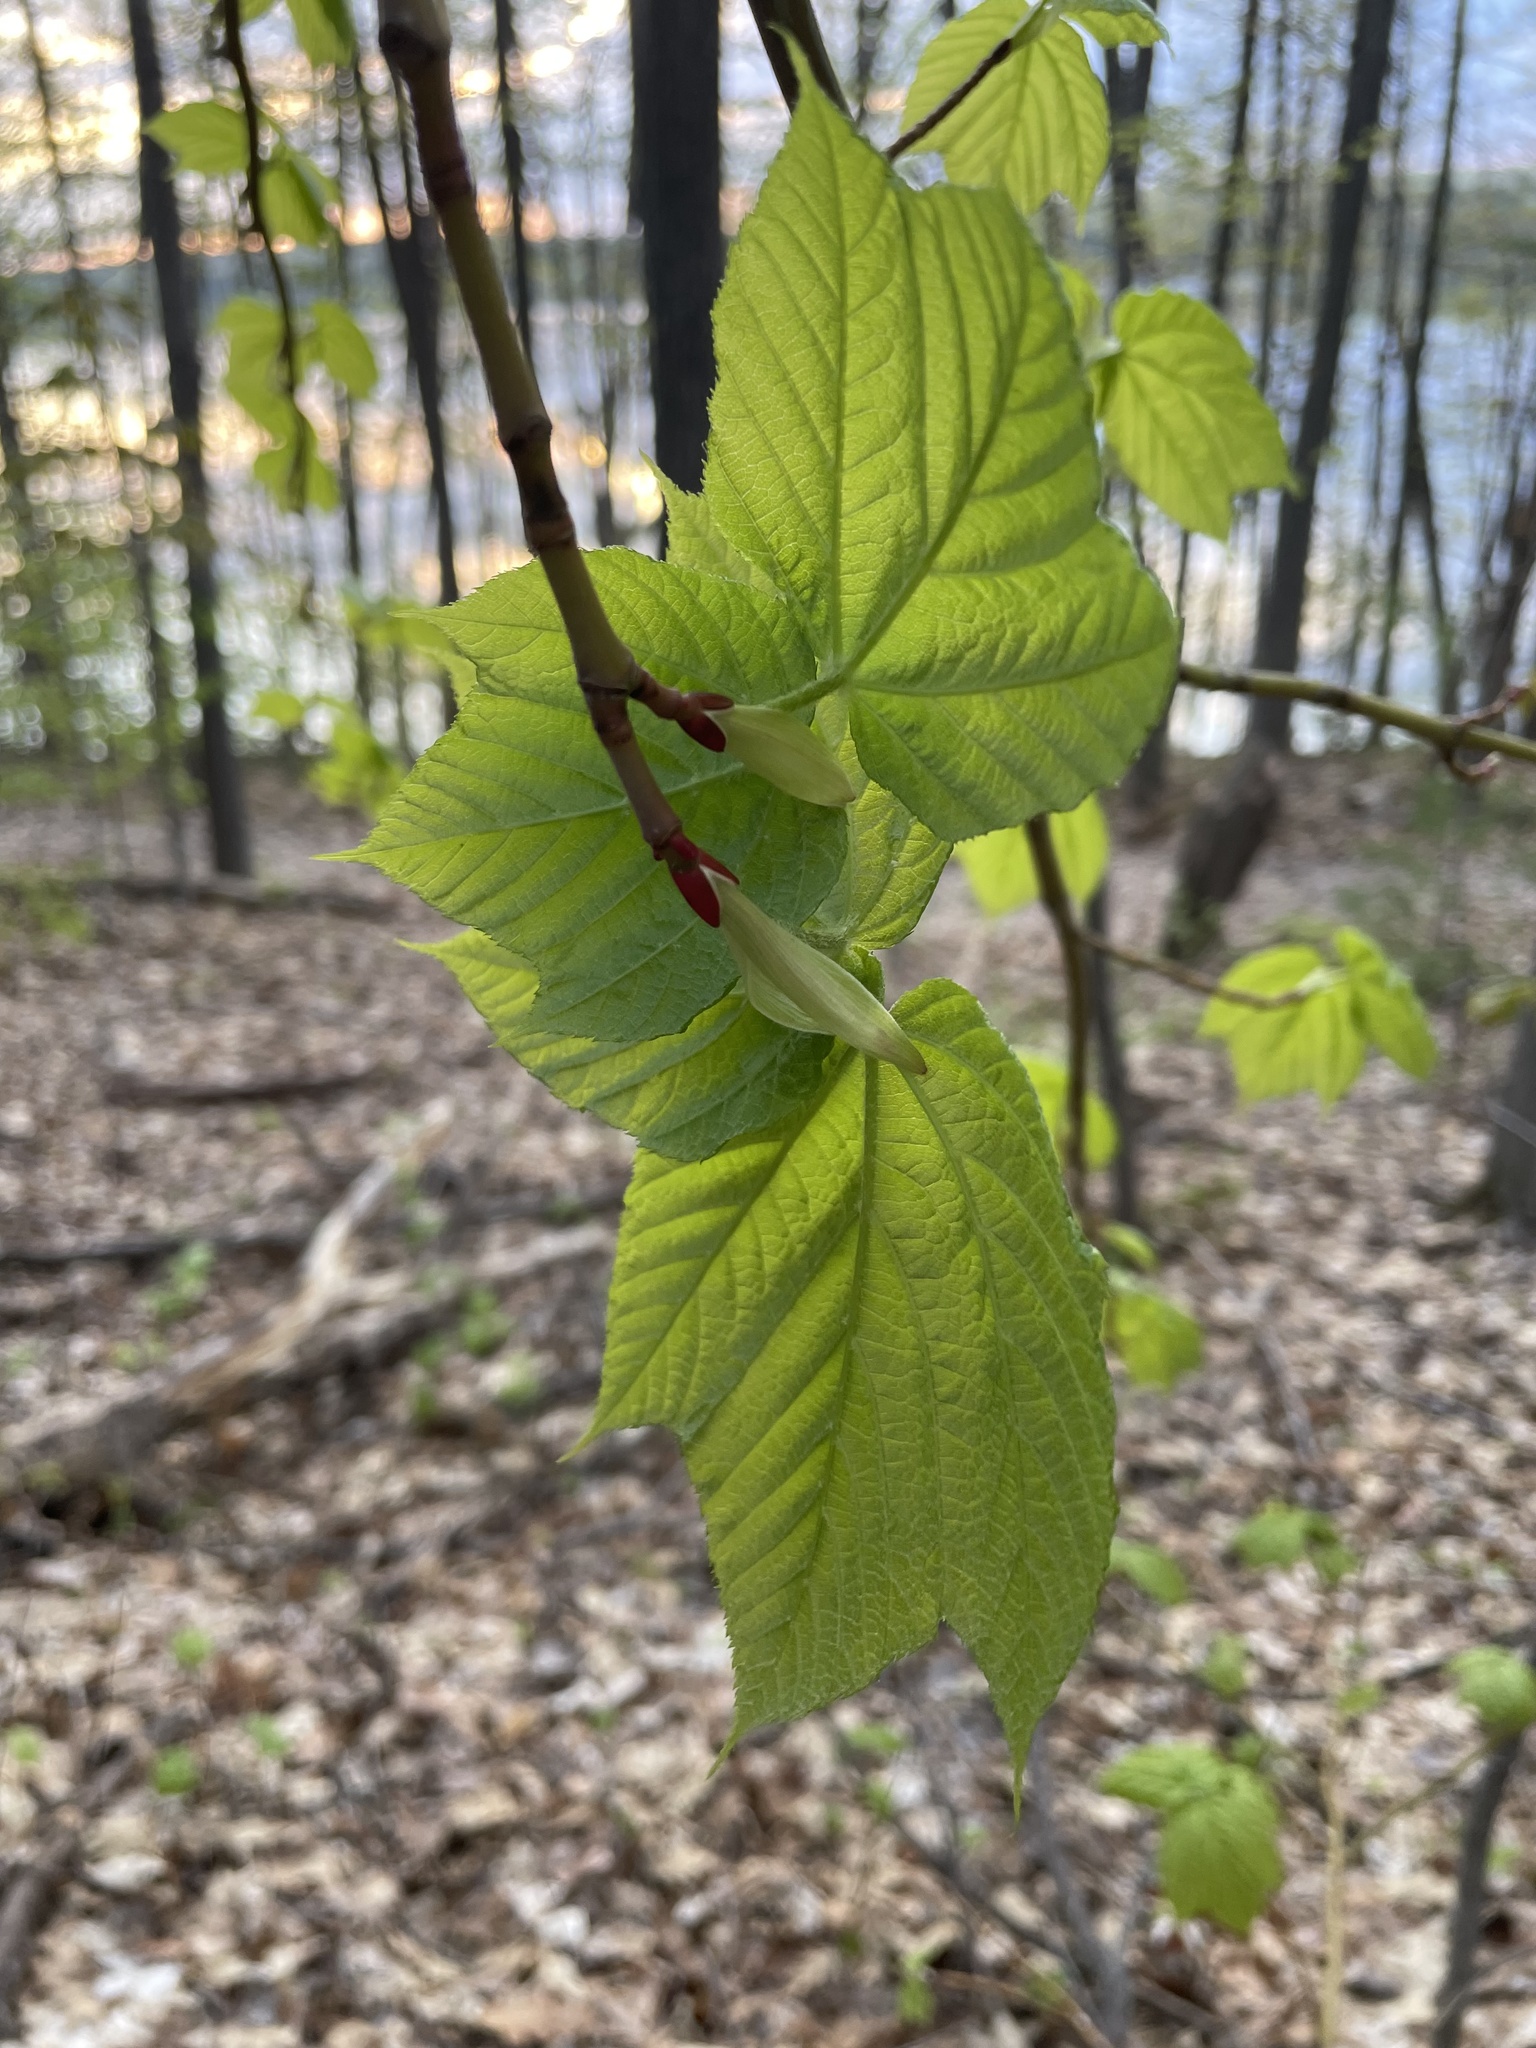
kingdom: Plantae
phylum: Tracheophyta
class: Magnoliopsida
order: Sapindales
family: Sapindaceae
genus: Acer
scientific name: Acer pensylvanicum
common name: Moosewood
